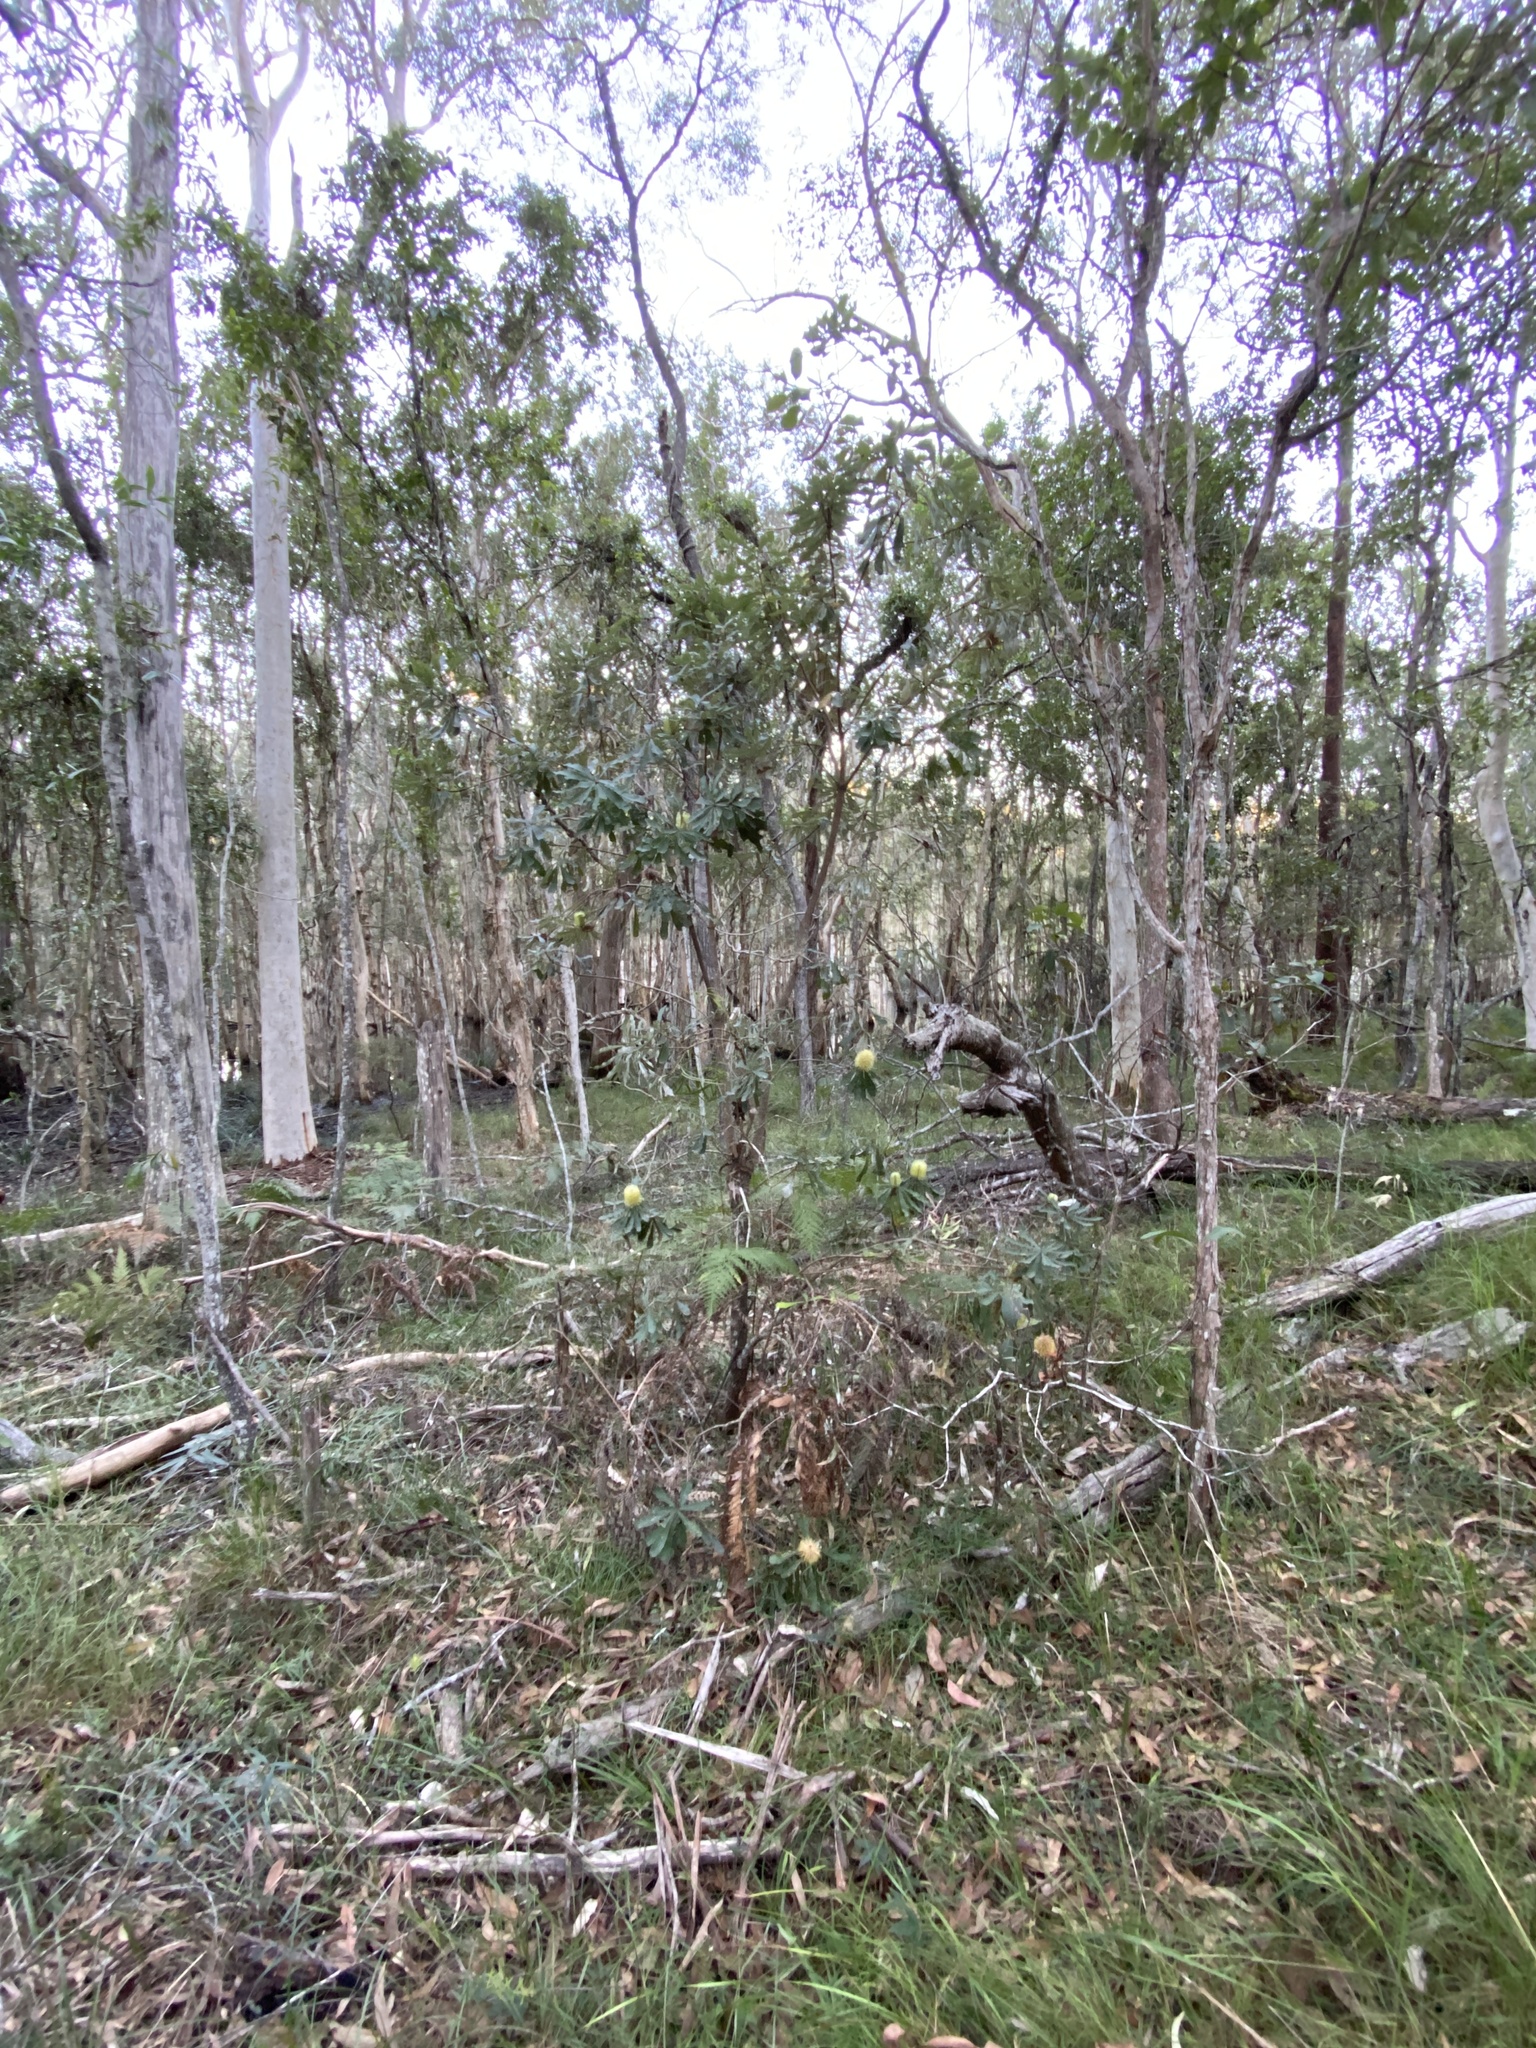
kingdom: Plantae
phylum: Tracheophyta
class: Magnoliopsida
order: Proteales
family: Proteaceae
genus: Banksia
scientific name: Banksia integrifolia
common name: White-honeysuckle
